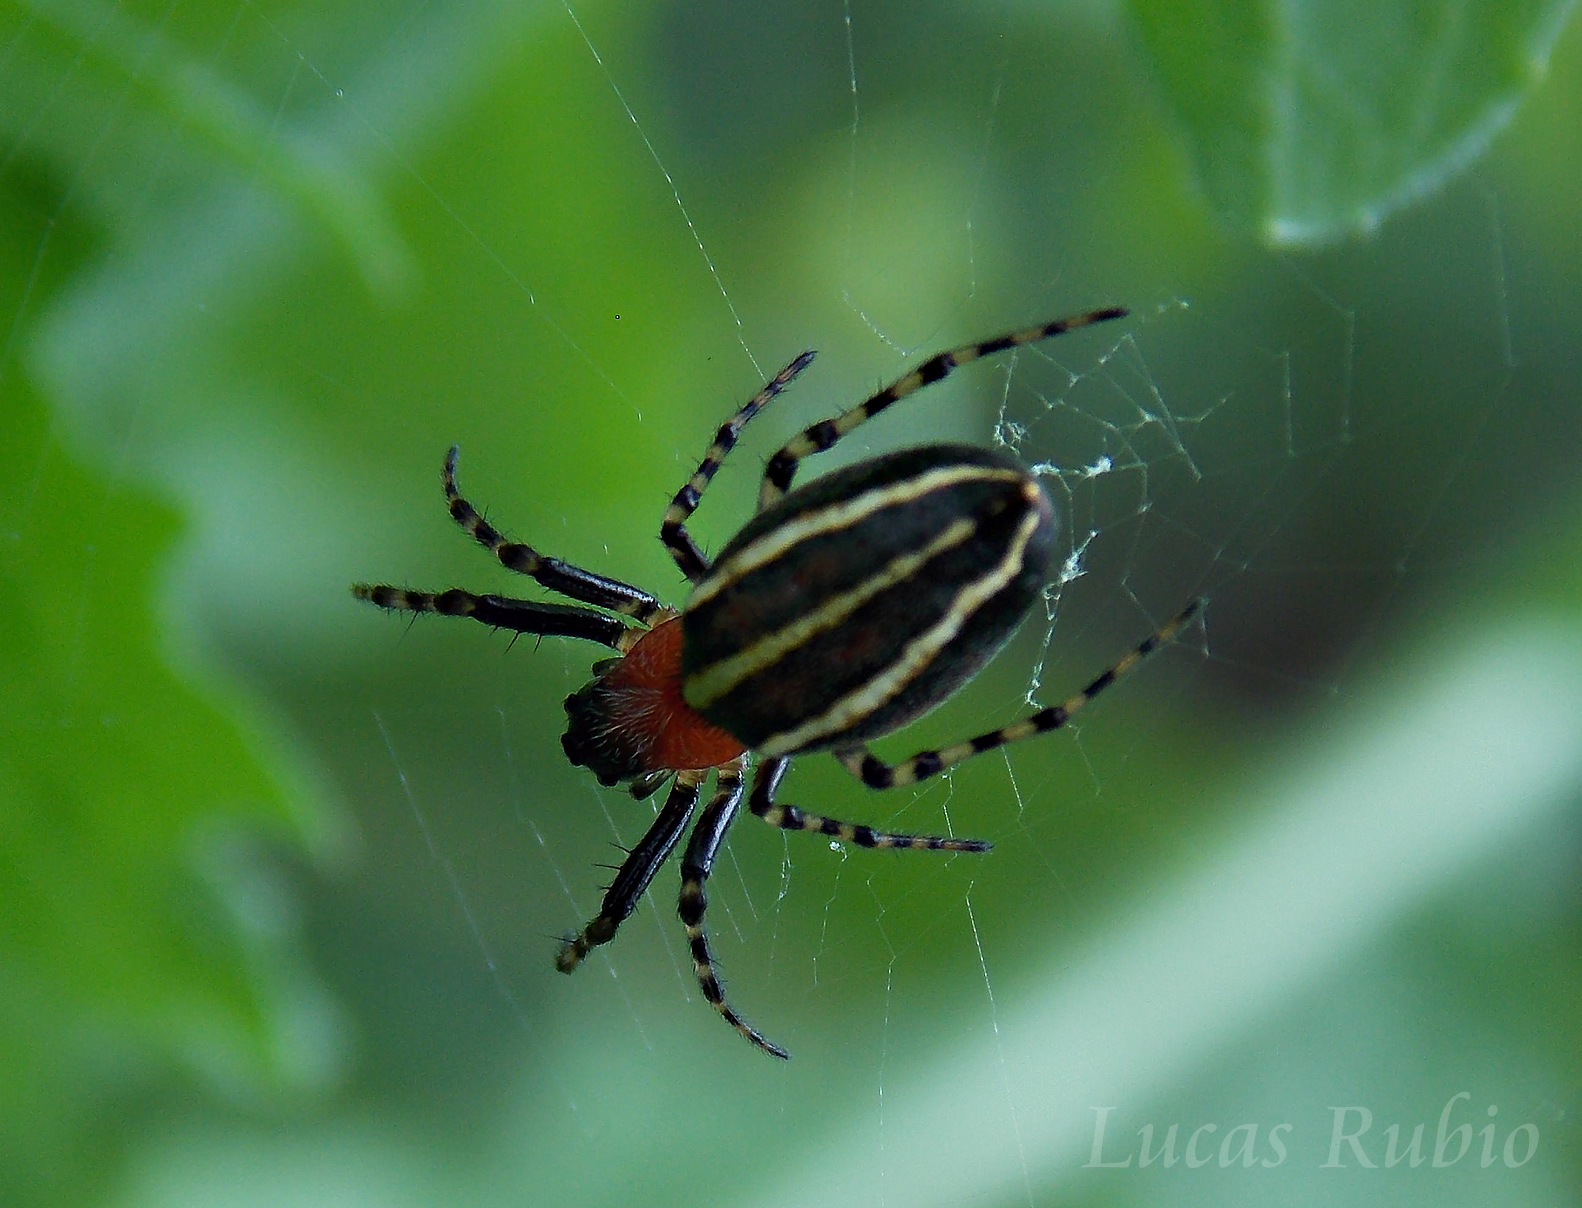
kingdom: Animalia
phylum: Arthropoda
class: Arachnida
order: Araneae
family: Araneidae
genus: Alpaida
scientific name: Alpaida leucogramma
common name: Orb weavers
